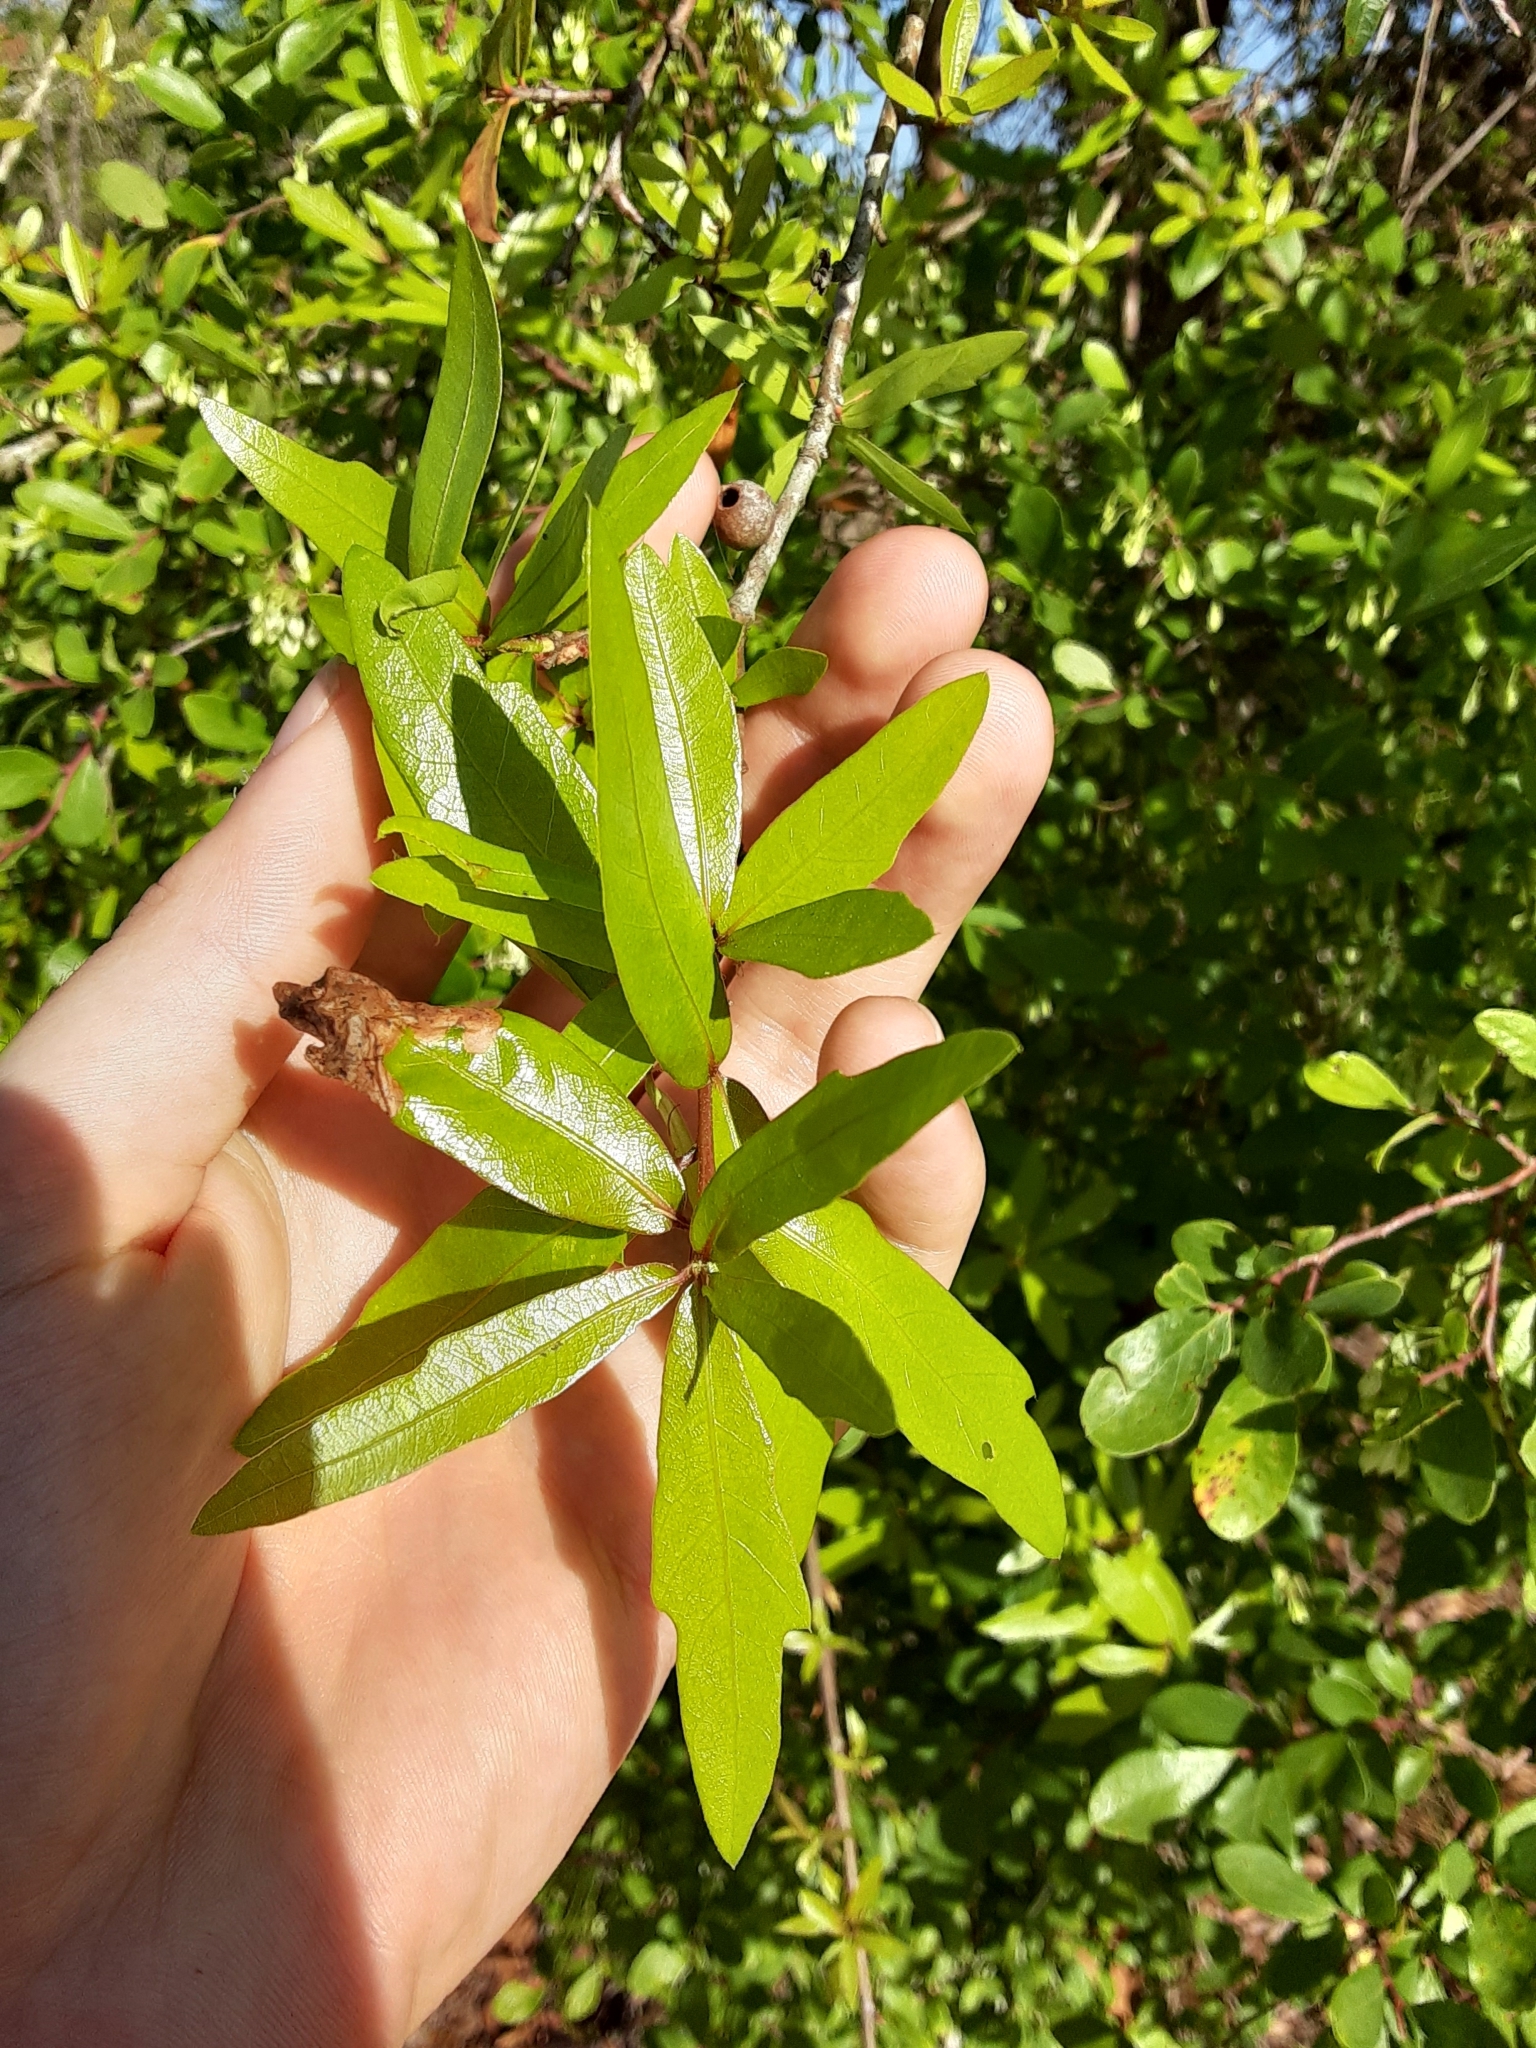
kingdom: Plantae
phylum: Tracheophyta
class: Magnoliopsida
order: Fagales
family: Fagaceae
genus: Quercus
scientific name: Quercus hemisphaerica
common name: Darlington oak
